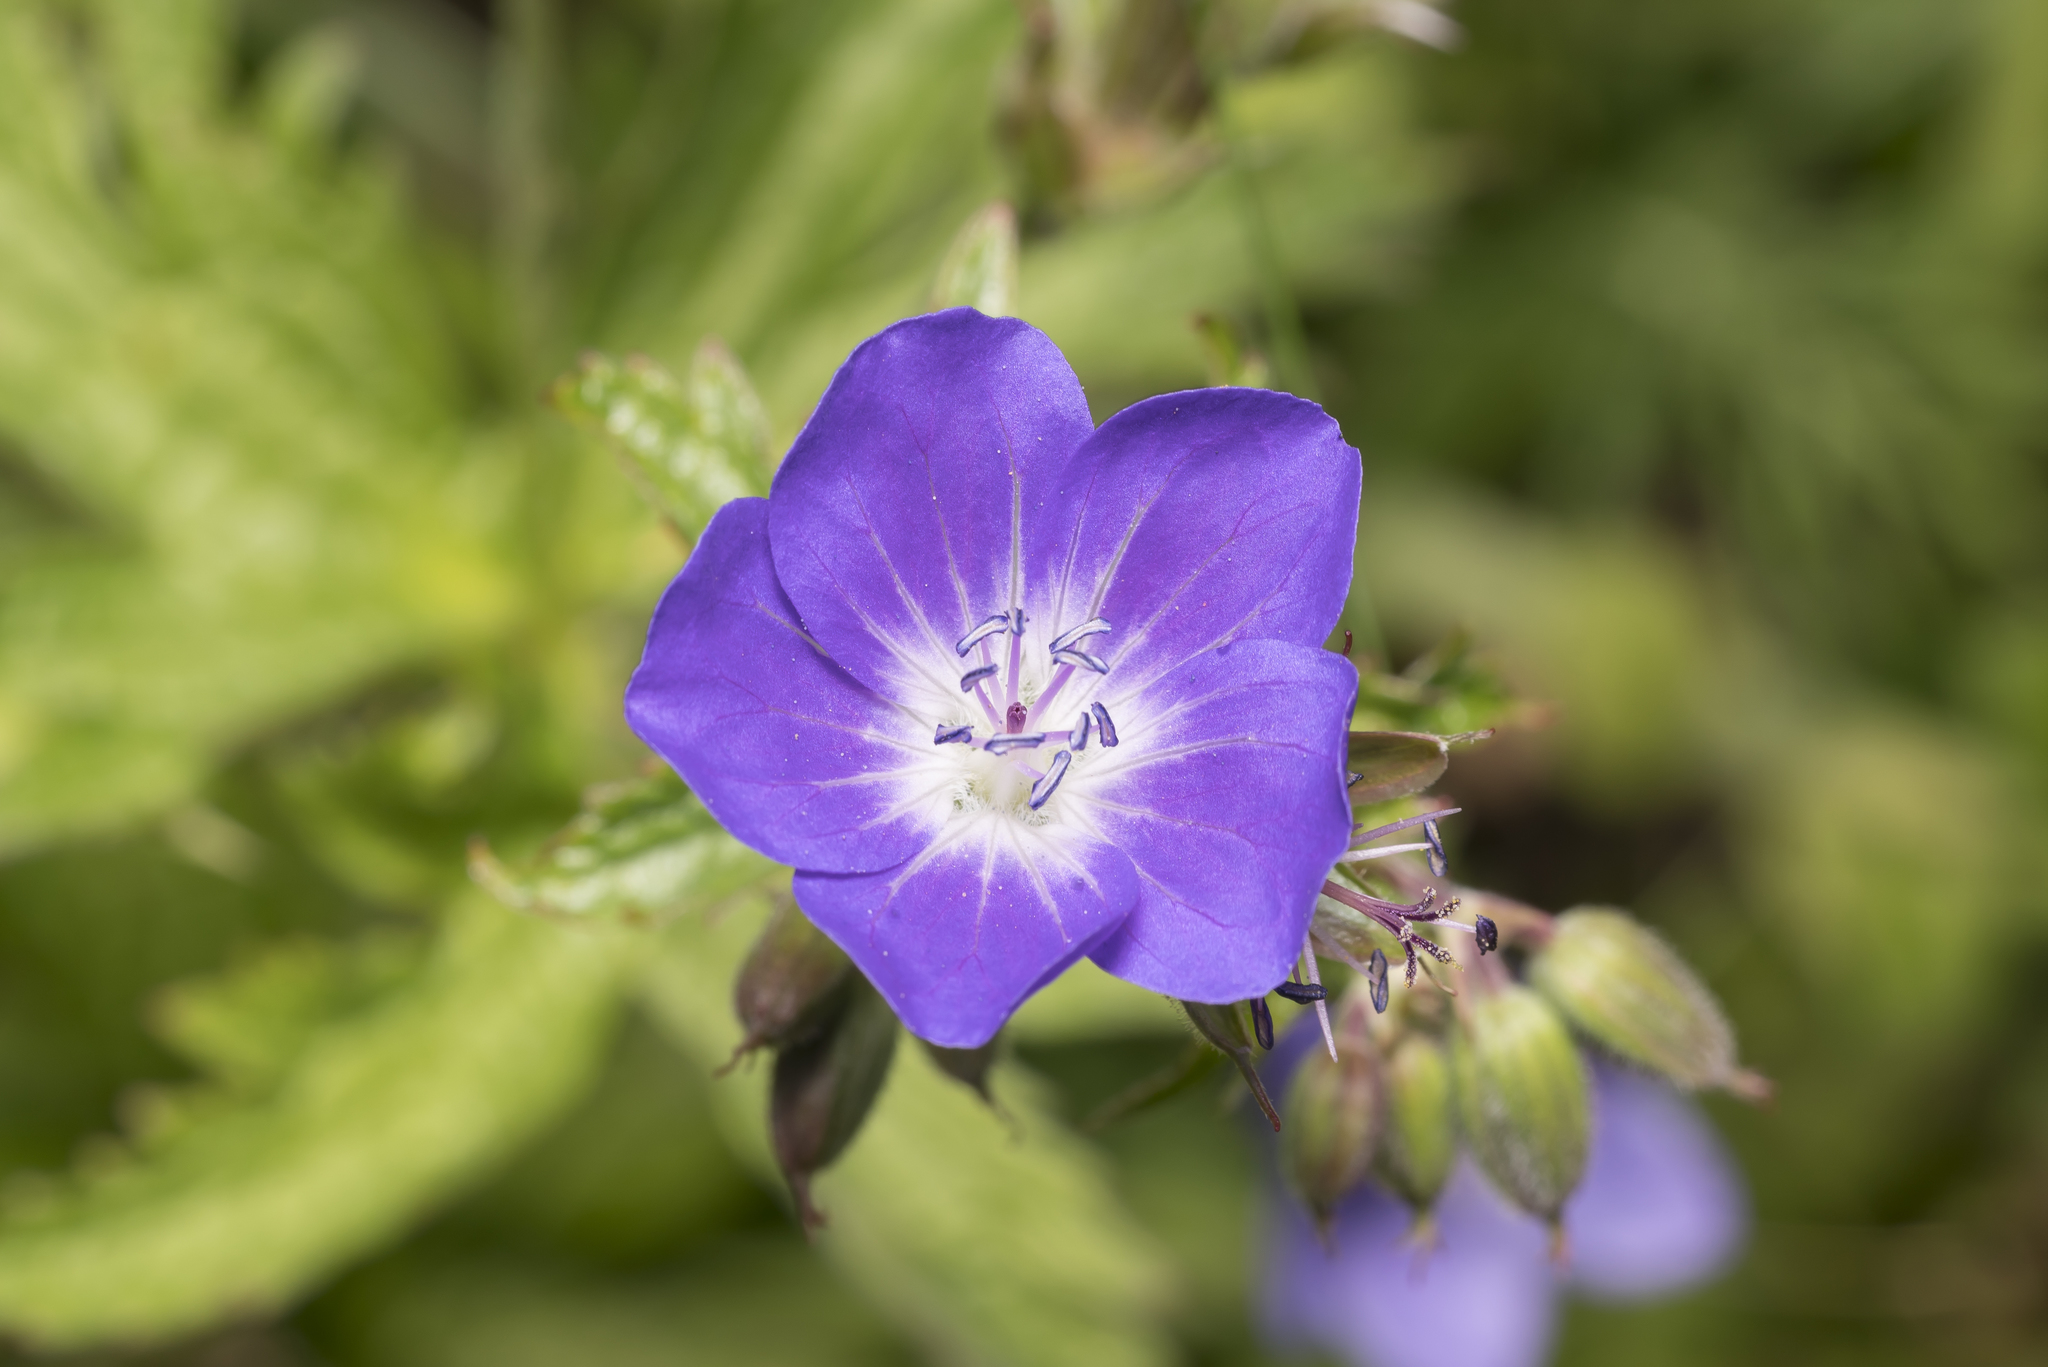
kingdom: Plantae
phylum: Tracheophyta
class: Magnoliopsida
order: Geraniales
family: Geraniaceae
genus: Geranium
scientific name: Geranium sylvaticum
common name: Wood crane's-bill
